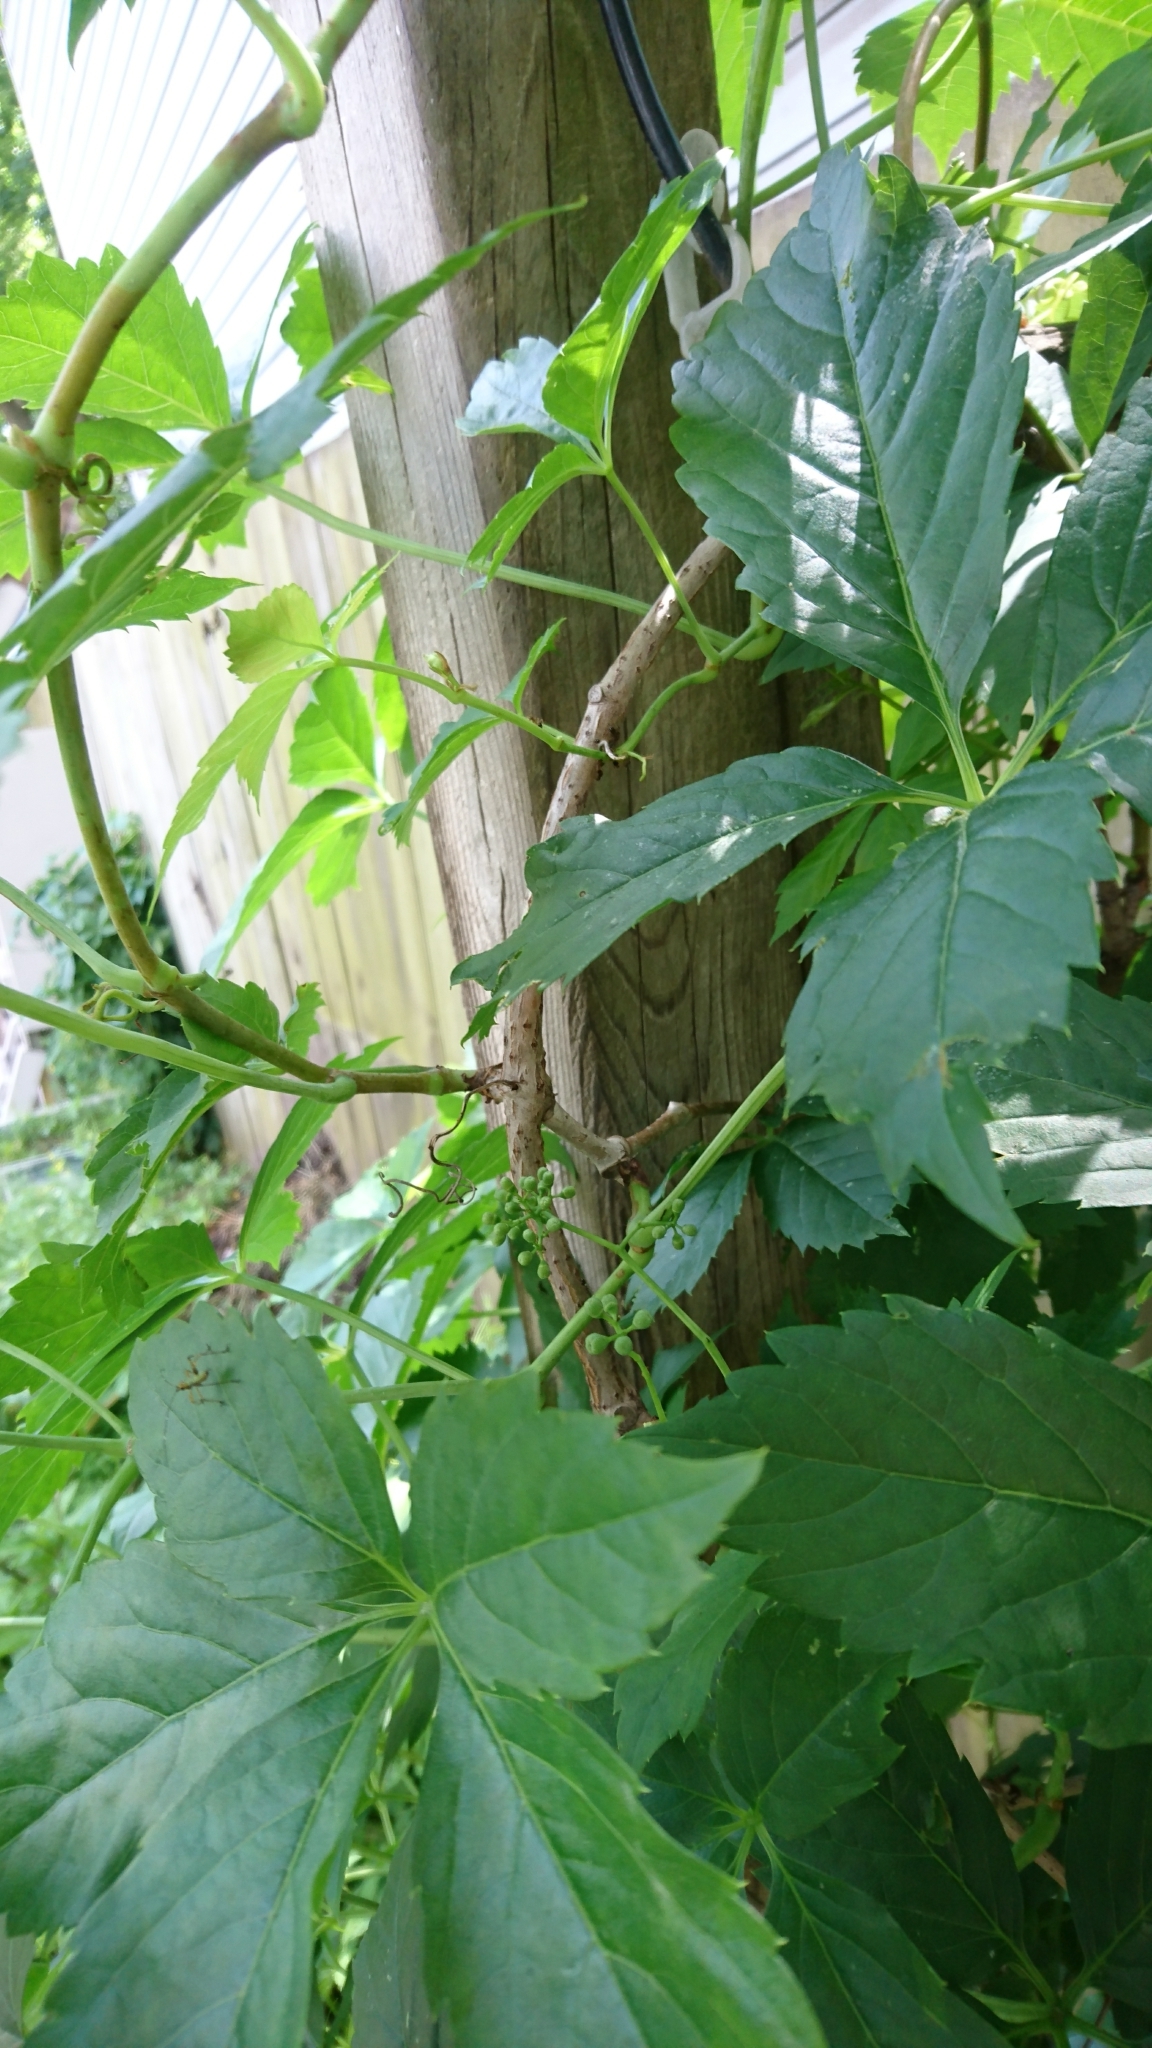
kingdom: Plantae
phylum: Tracheophyta
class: Magnoliopsida
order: Vitales
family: Vitaceae
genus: Parthenocissus
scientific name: Parthenocissus quinquefolia
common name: Virginia-creeper
